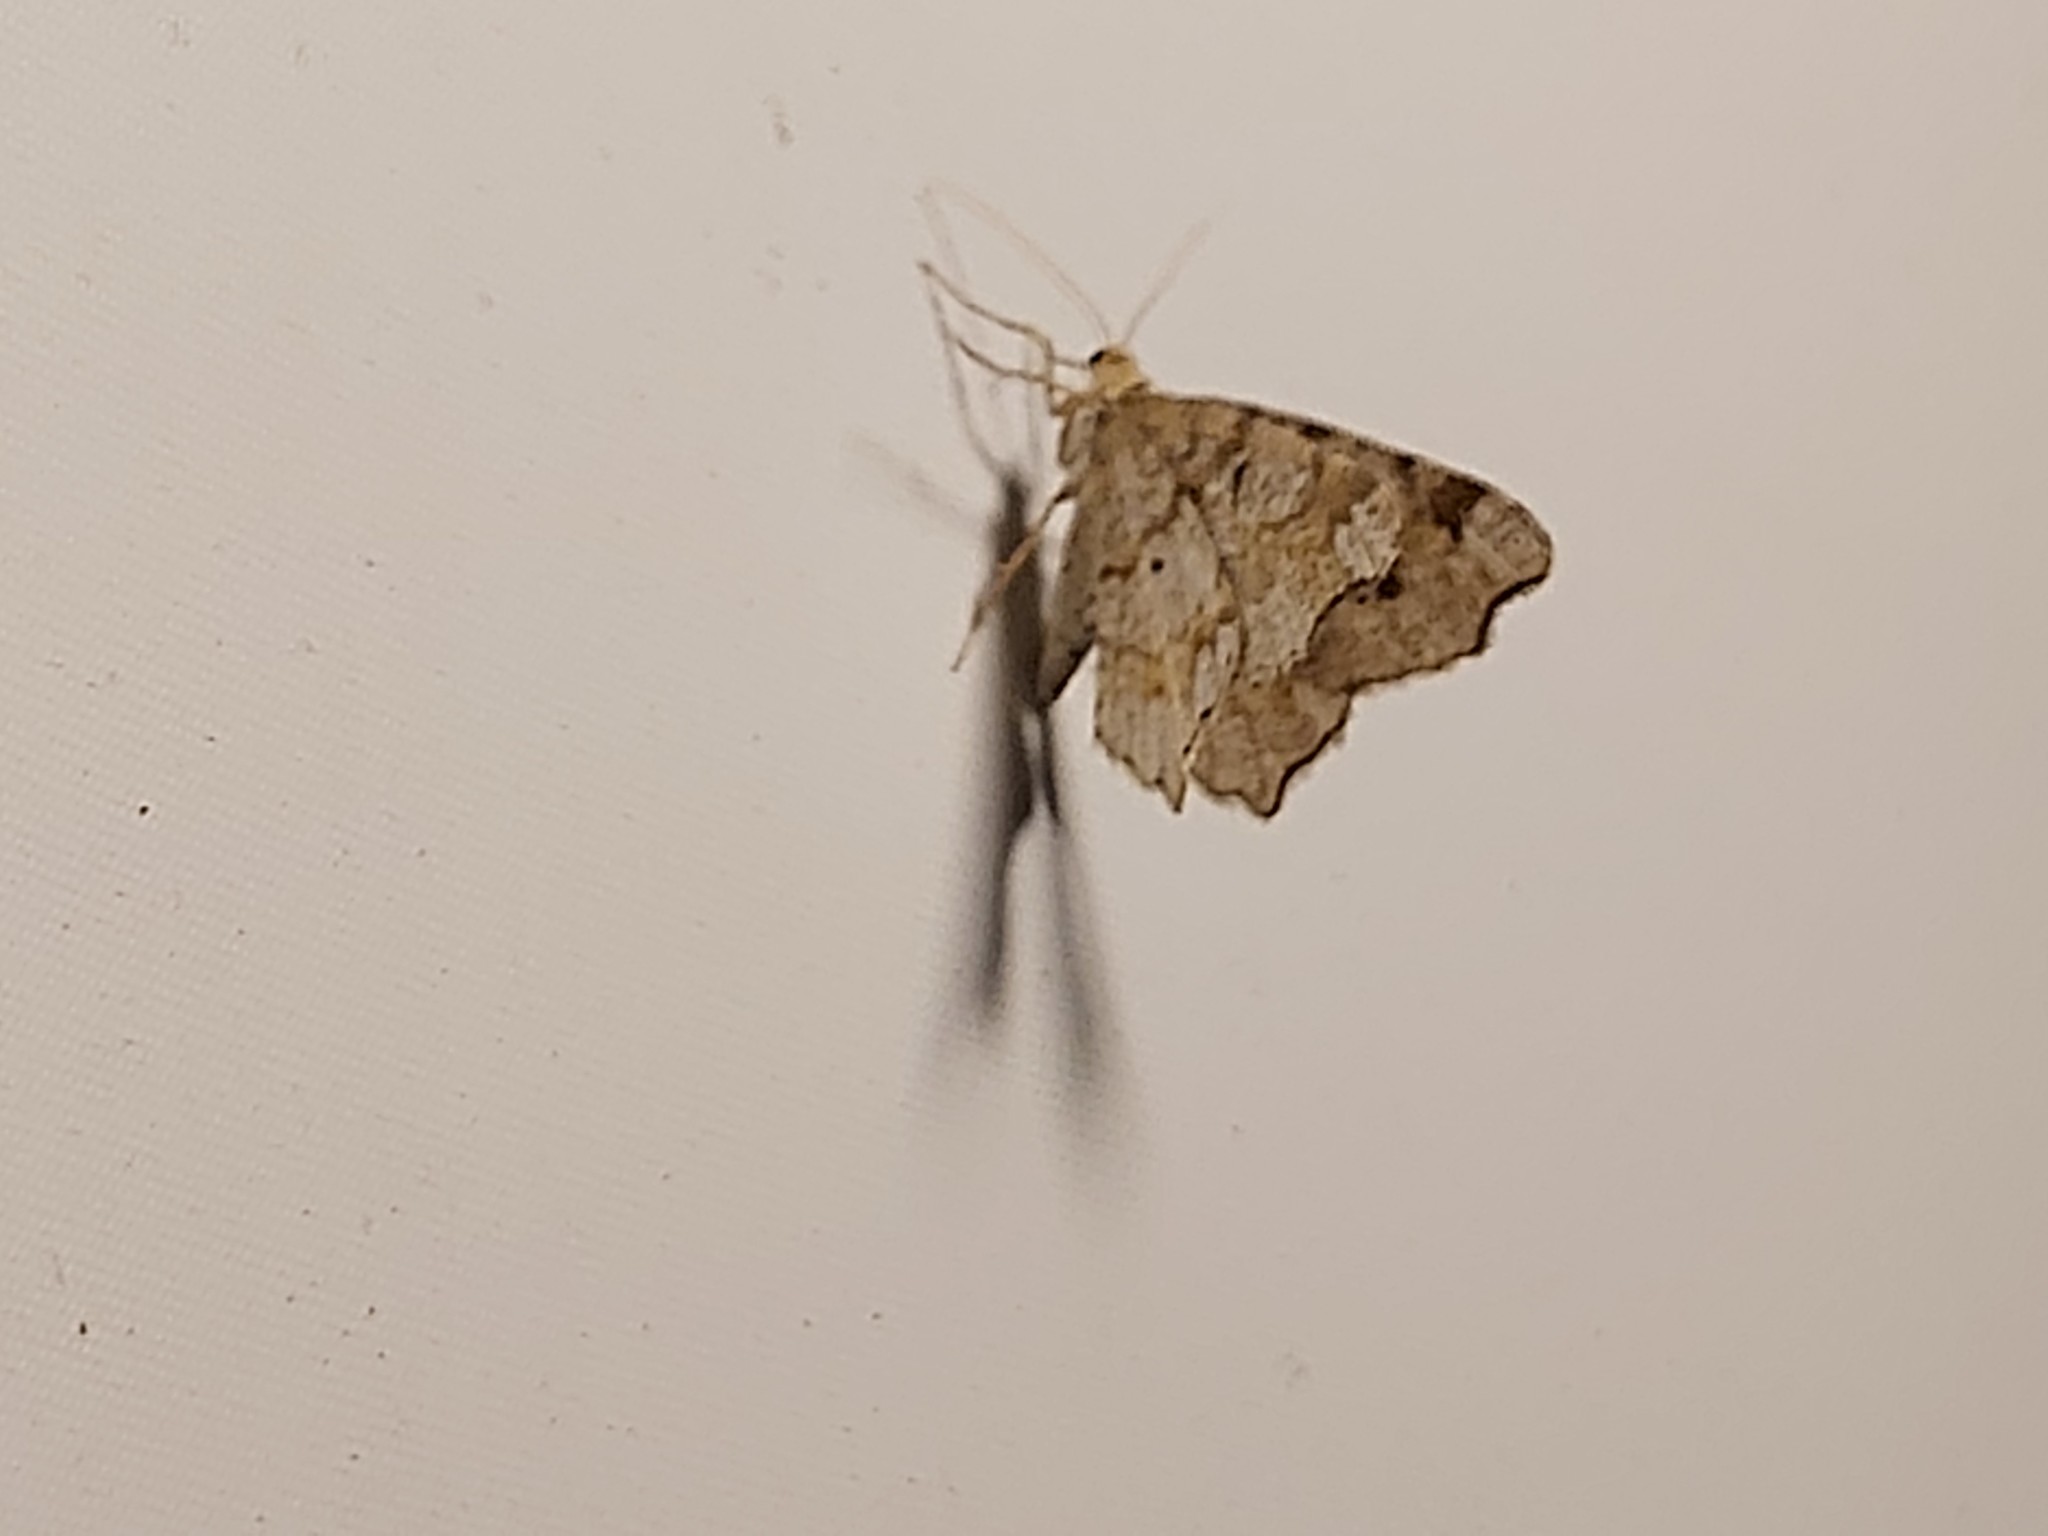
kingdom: Animalia
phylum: Arthropoda
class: Insecta
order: Lepidoptera
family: Geometridae
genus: Macaria
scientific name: Macaria alternata
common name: Sharp-angled peacock
